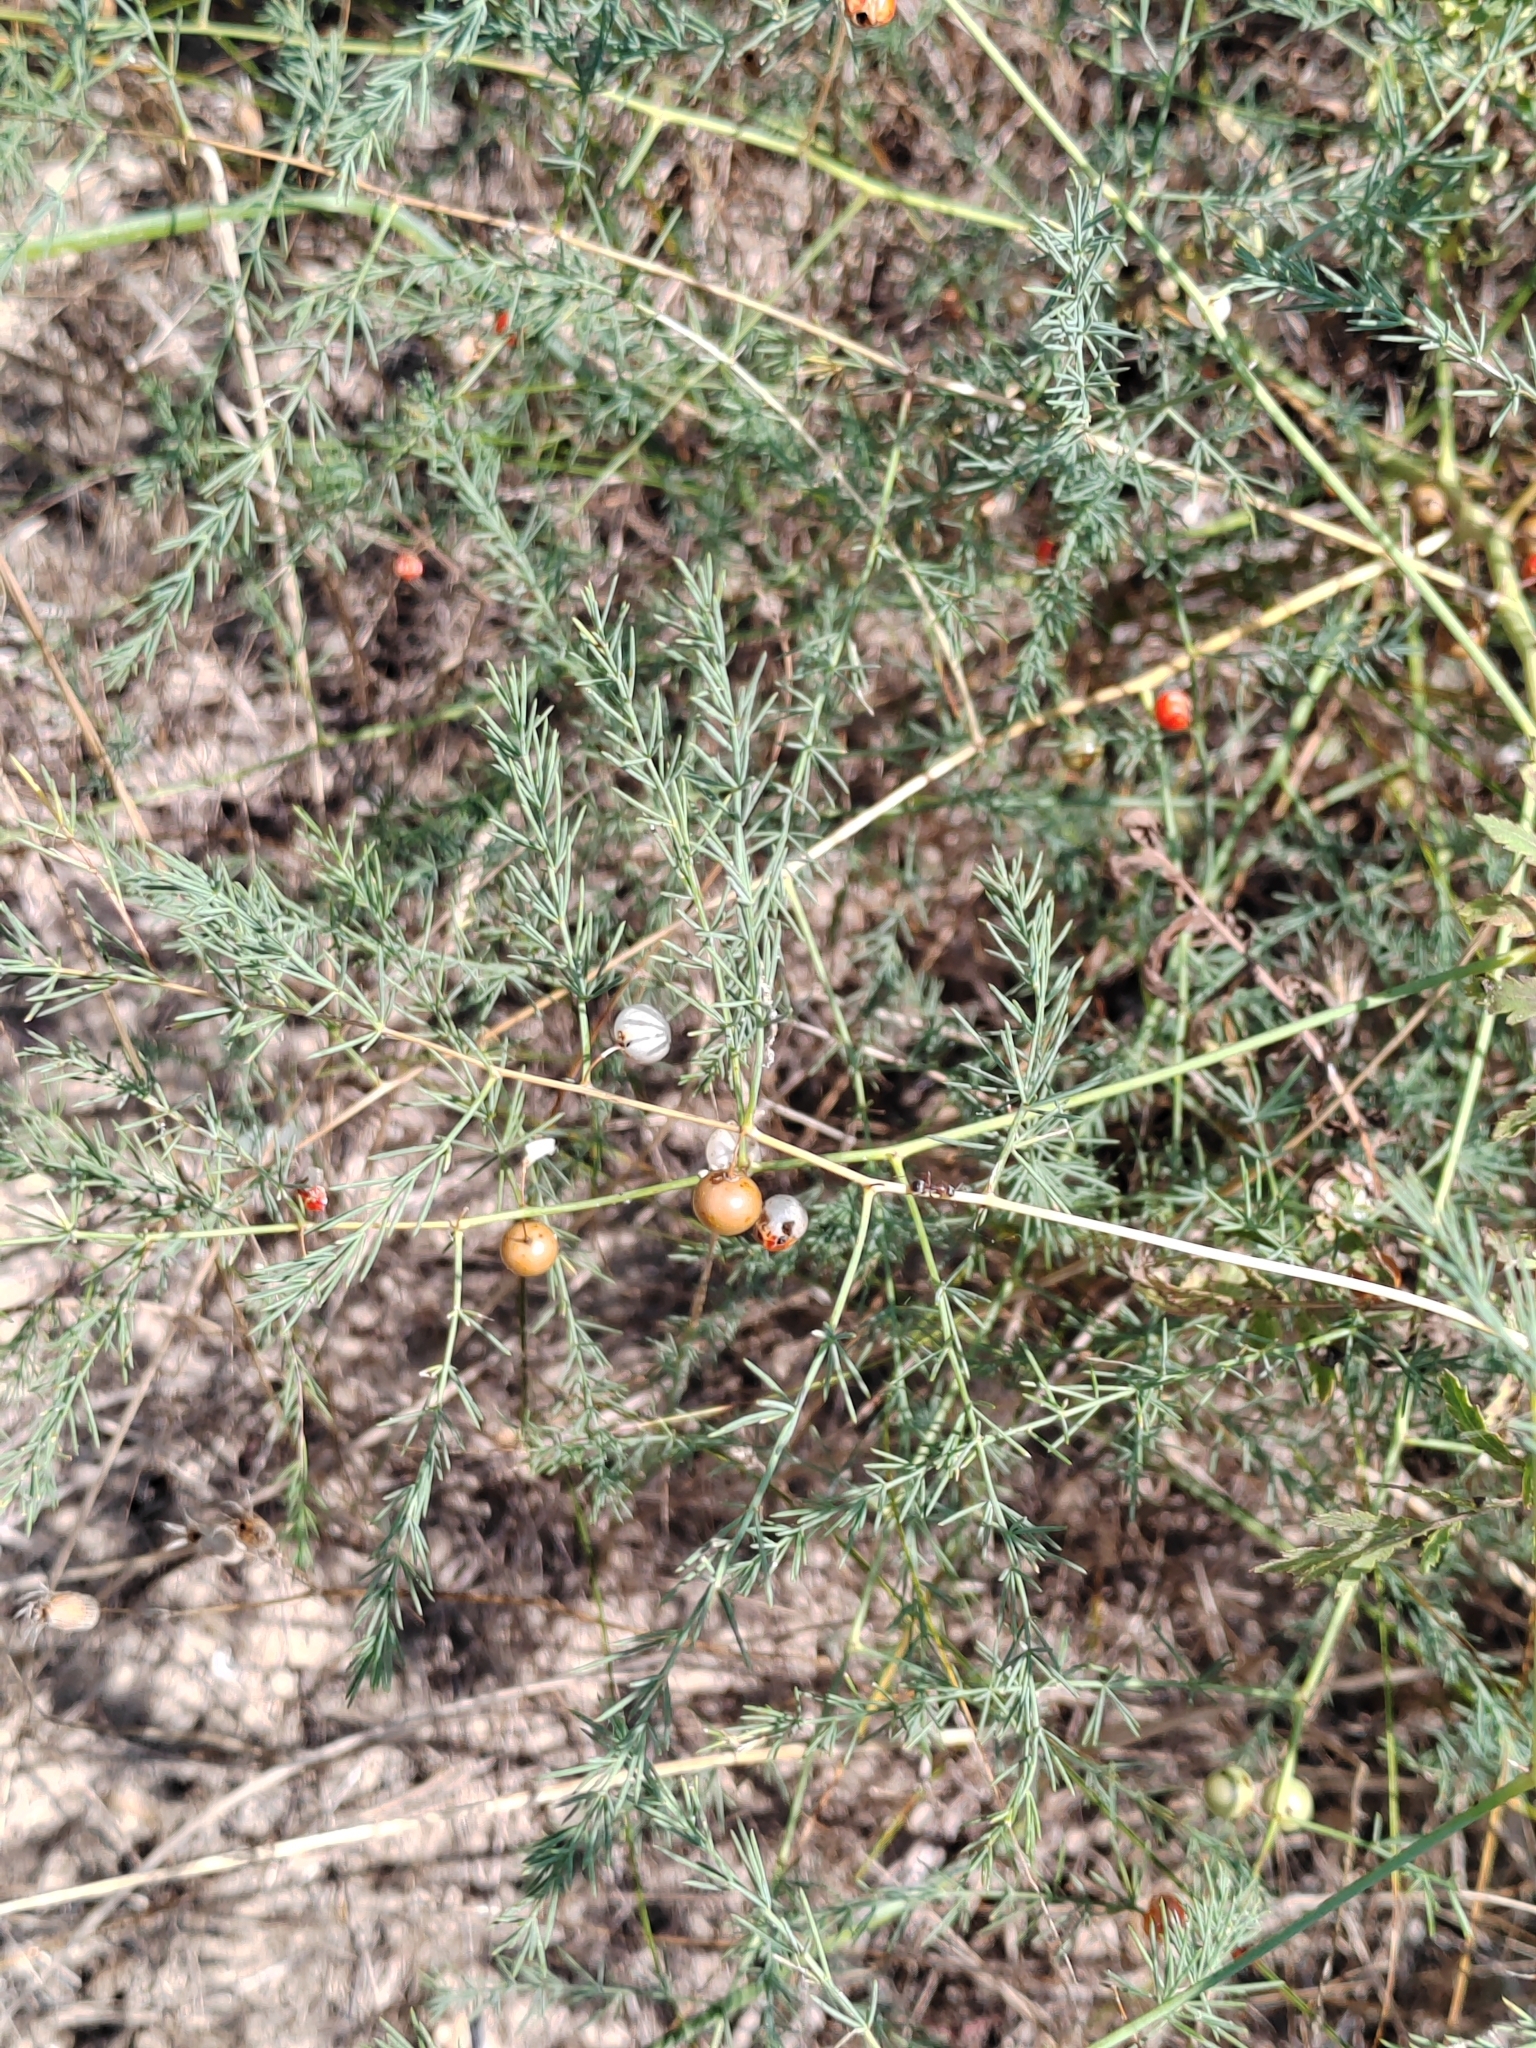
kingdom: Plantae
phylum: Tracheophyta
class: Liliopsida
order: Asparagales
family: Asparagaceae
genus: Asparagus
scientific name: Asparagus officinalis
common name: Garden asparagus
